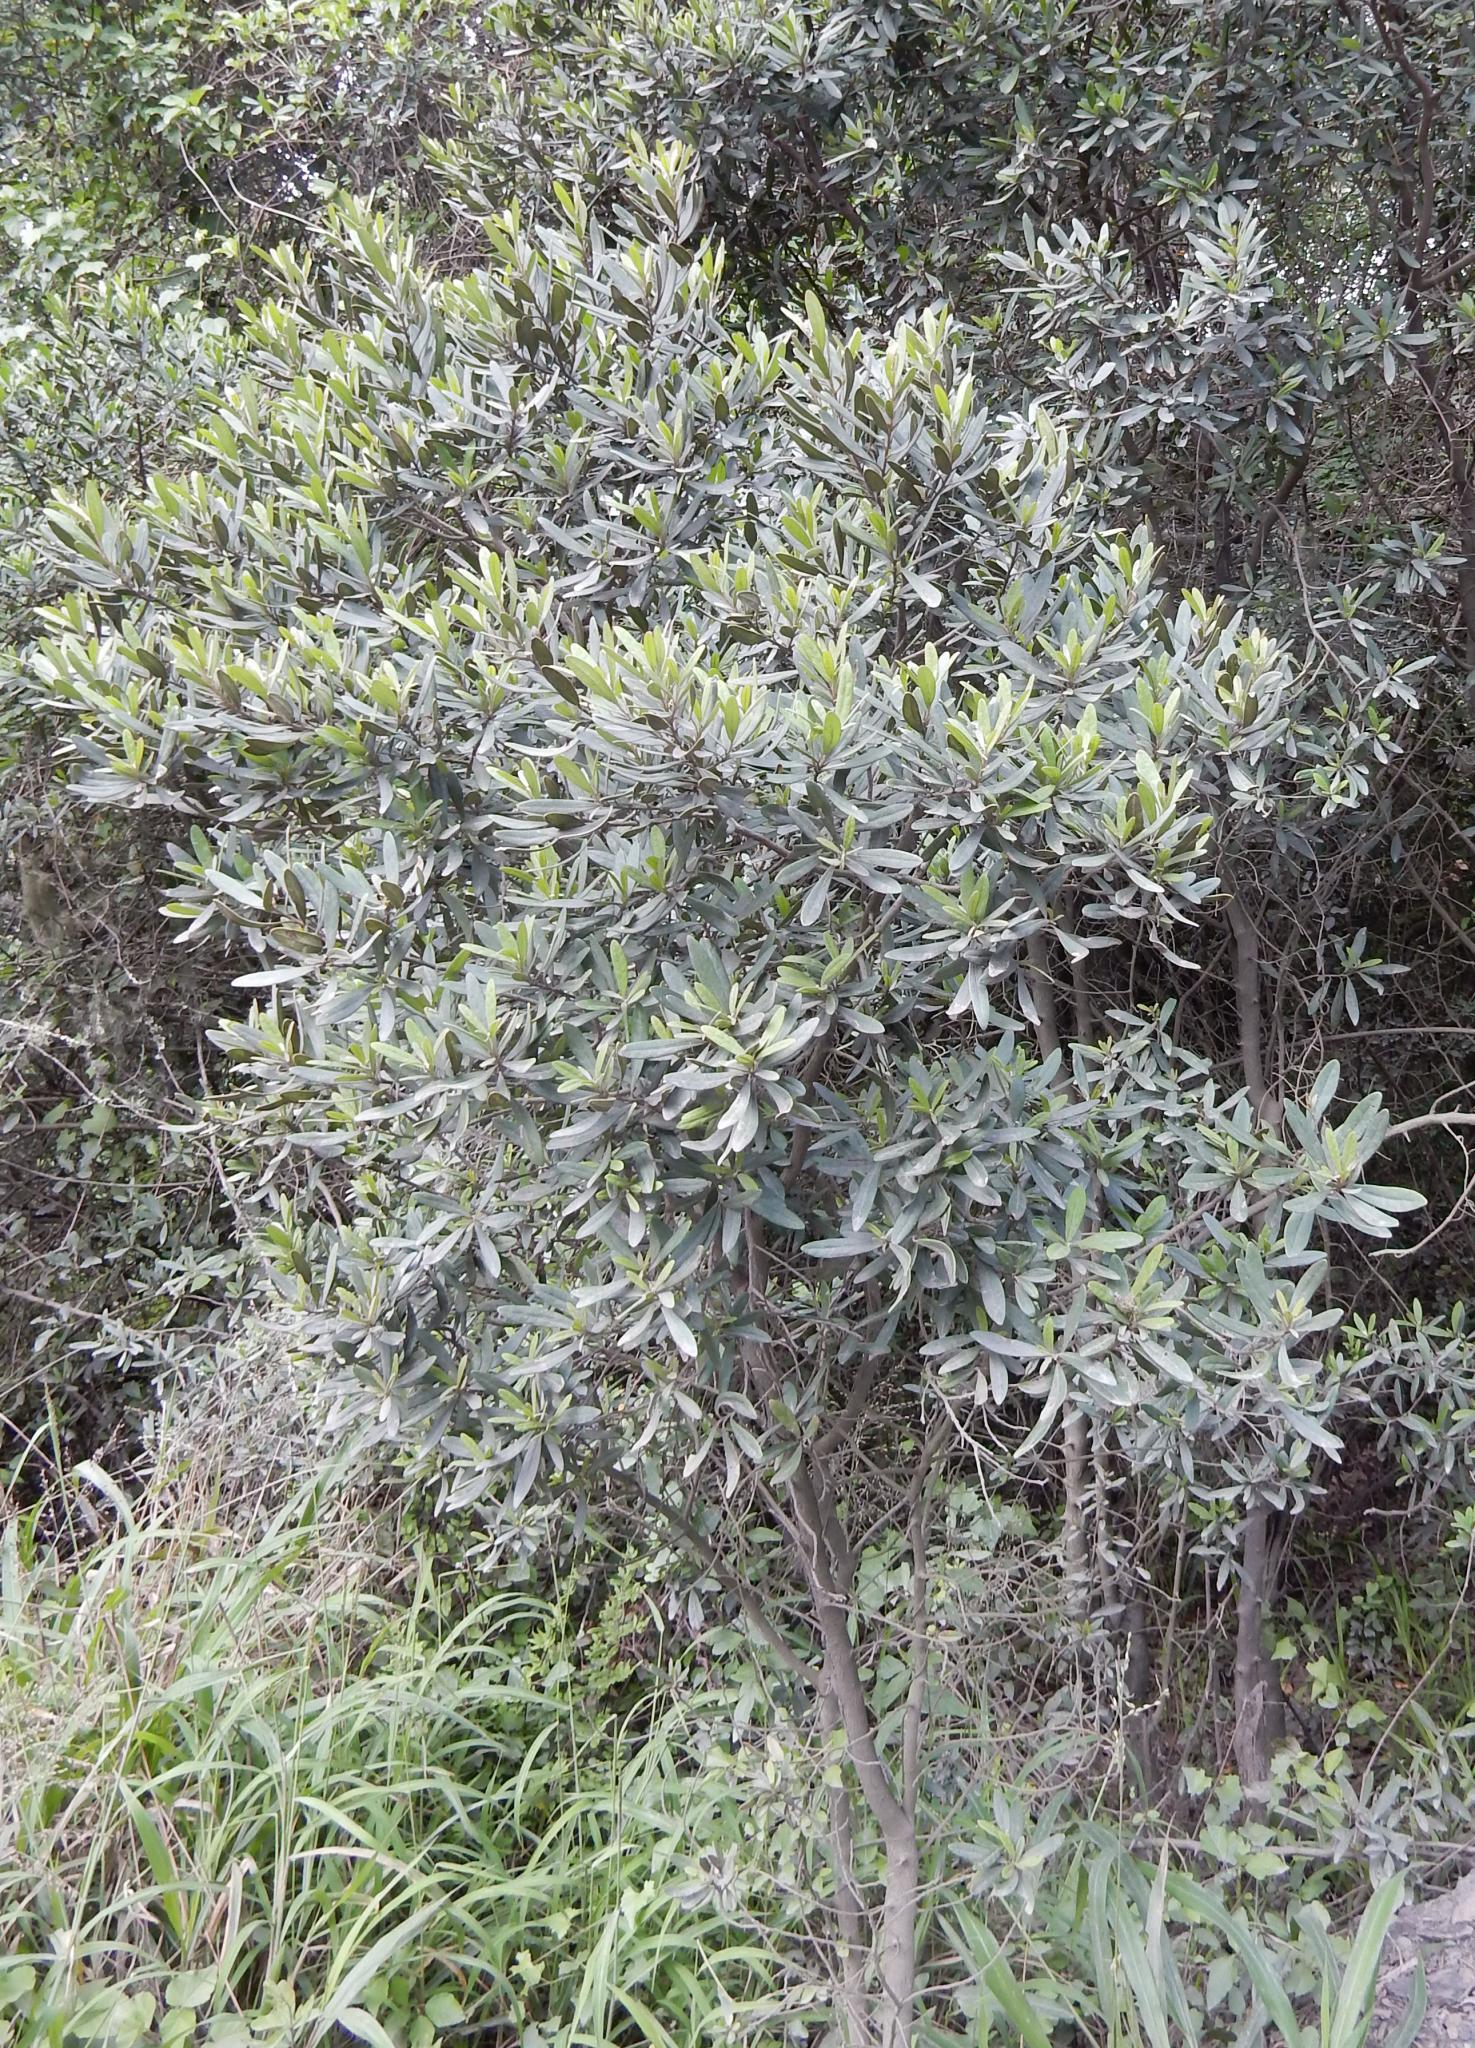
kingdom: Plantae
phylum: Tracheophyta
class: Magnoliopsida
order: Ericales
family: Ebenaceae
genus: Euclea
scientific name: Euclea racemosa
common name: Dune guarri
